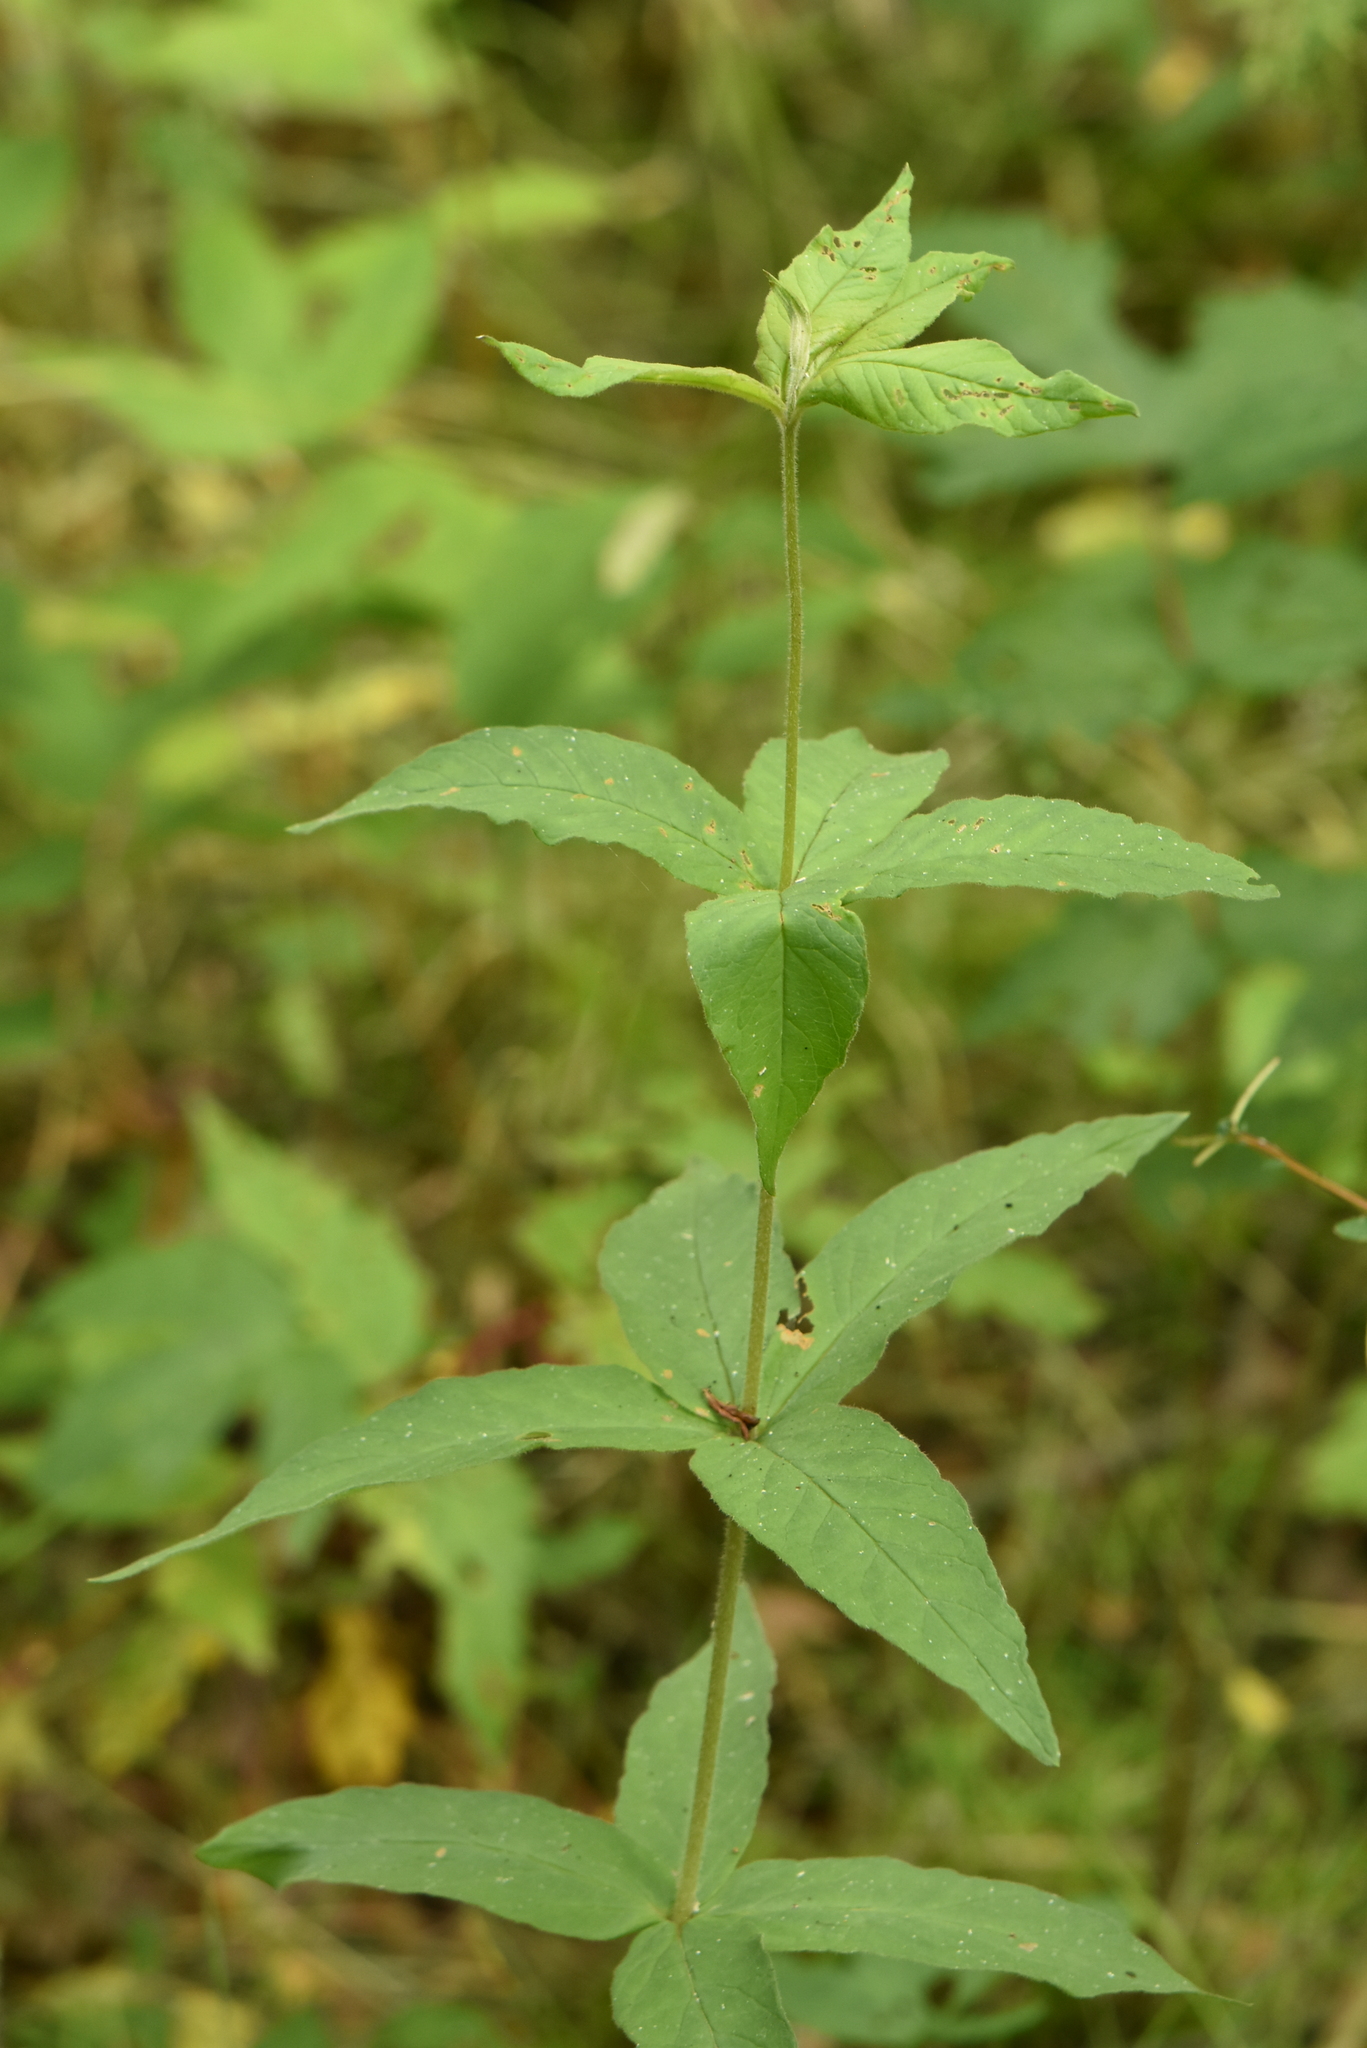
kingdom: Plantae
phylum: Tracheophyta
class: Magnoliopsida
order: Ericales
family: Primulaceae
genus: Lysimachia
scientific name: Lysimachia vulgaris
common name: Yellow loosestrife
